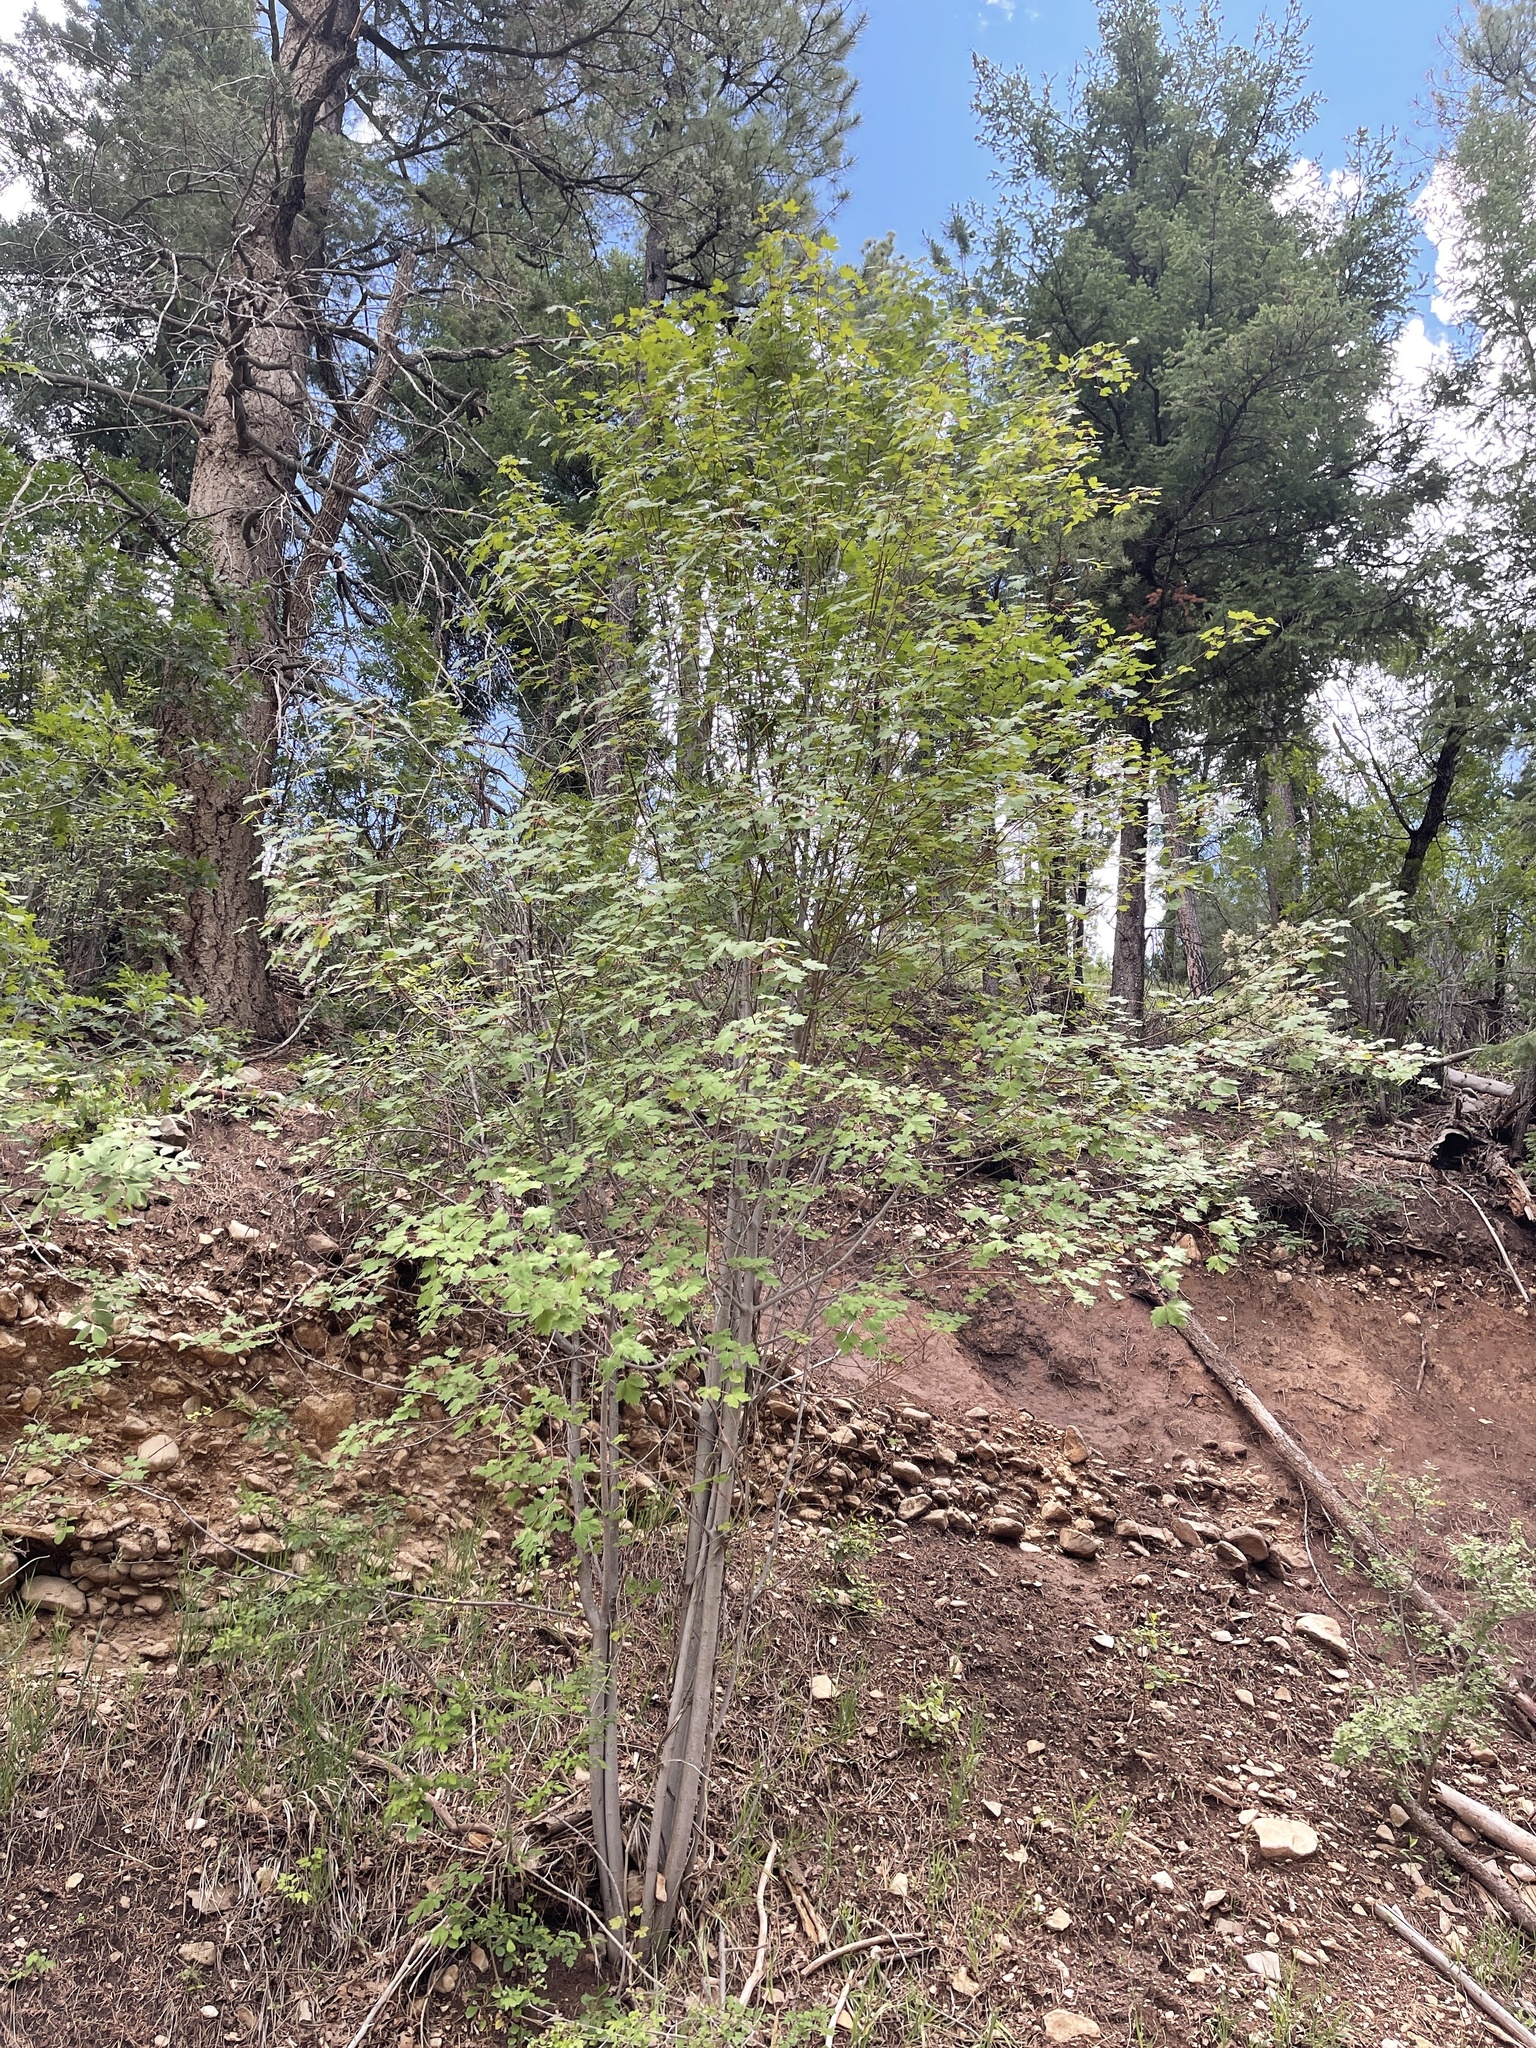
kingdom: Plantae
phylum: Tracheophyta
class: Magnoliopsida
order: Sapindales
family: Sapindaceae
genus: Acer
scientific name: Acer glabrum
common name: Rocky mountain maple
